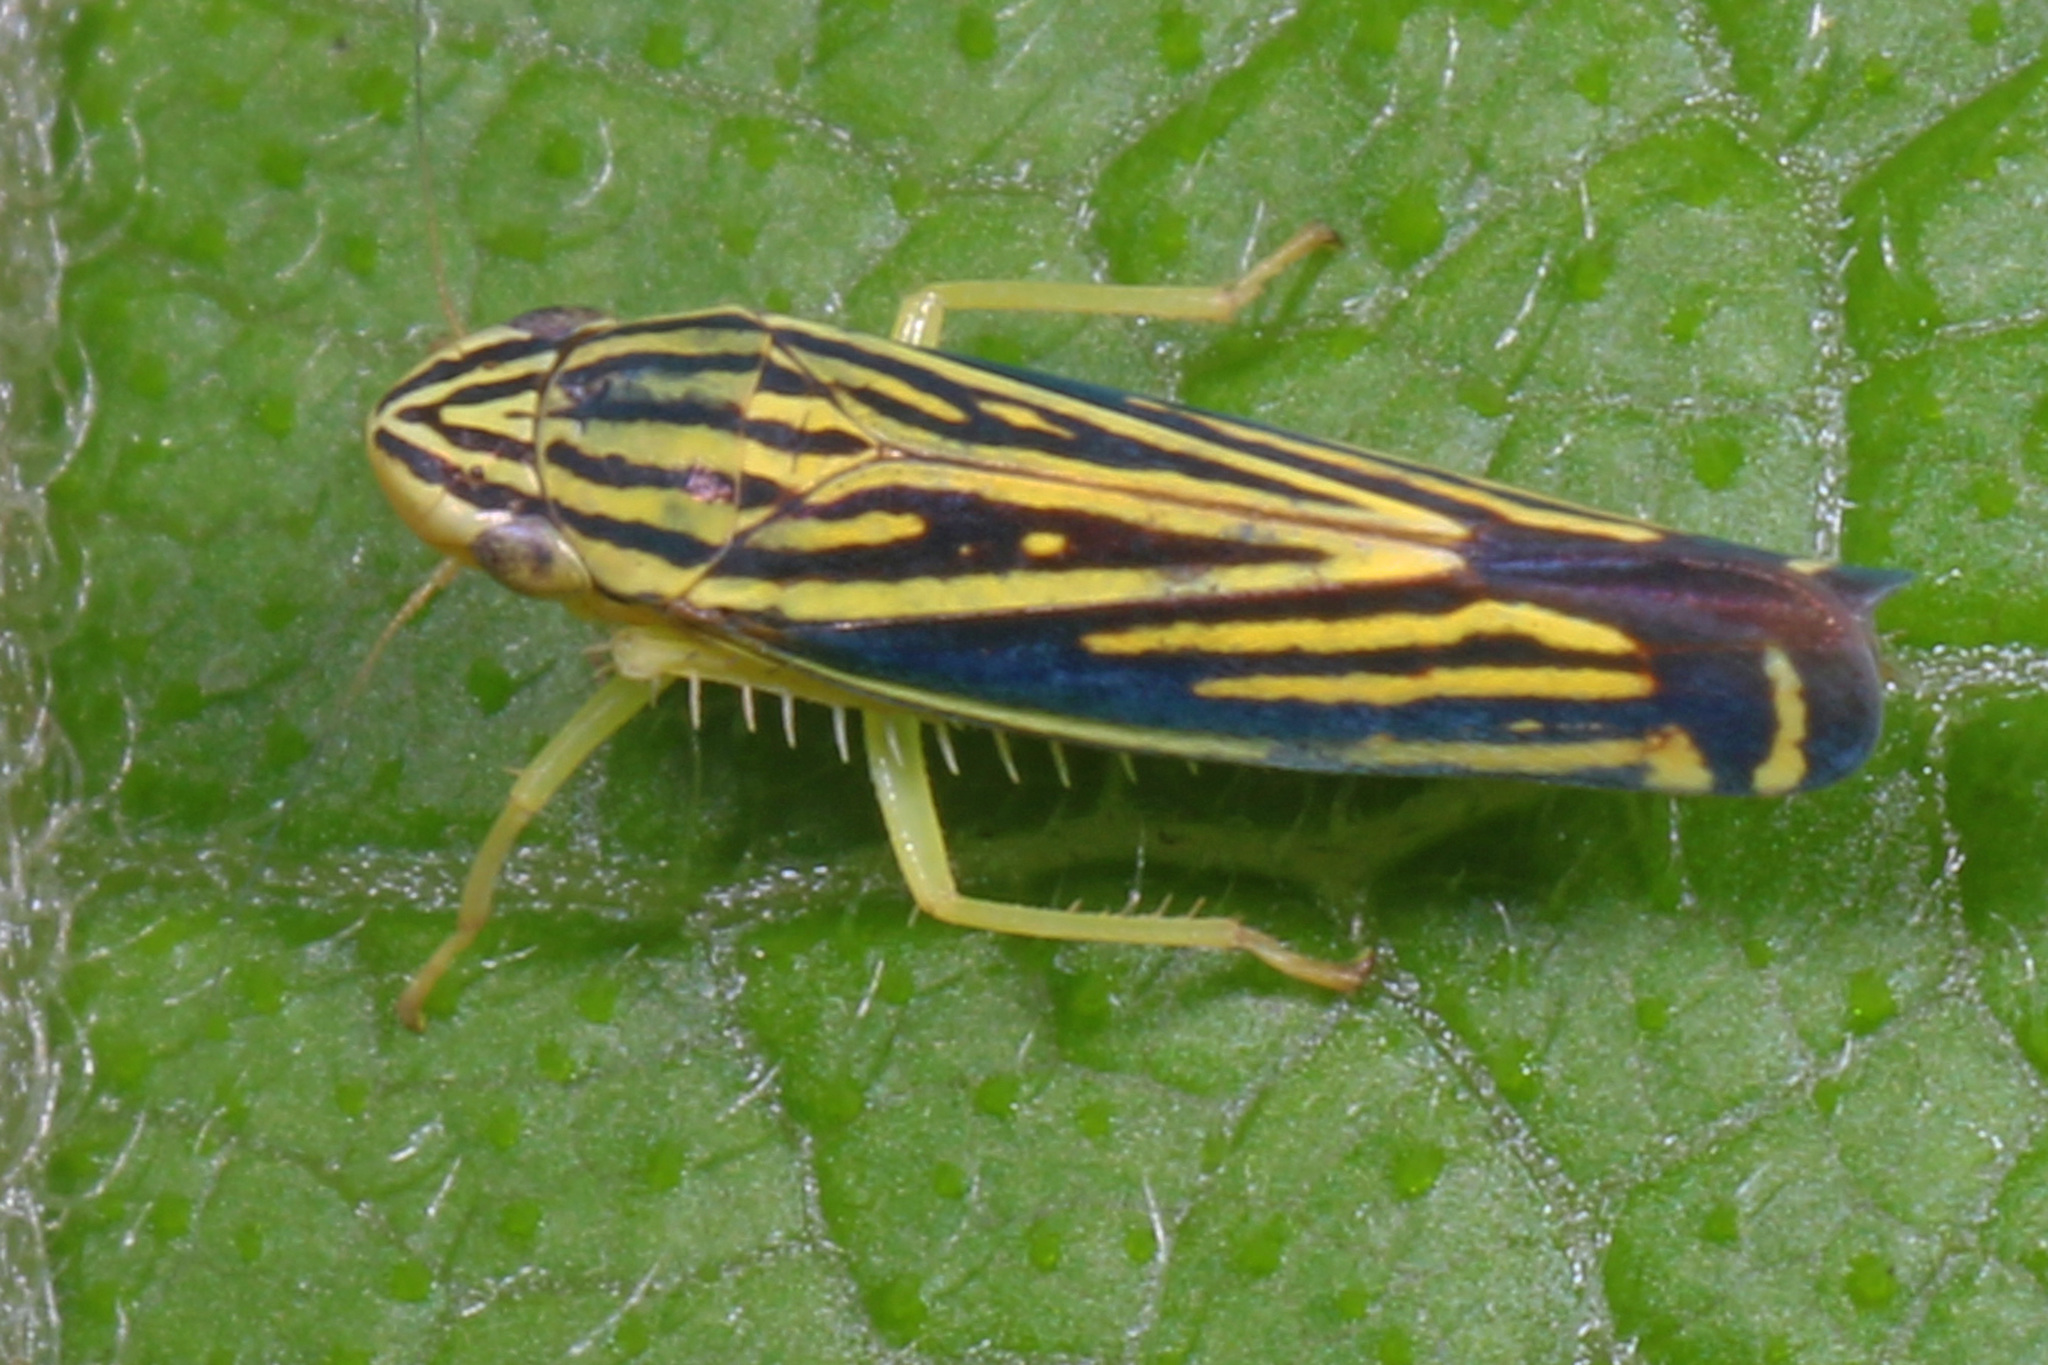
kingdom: Animalia
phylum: Arthropoda
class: Insecta
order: Hemiptera
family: Cicadellidae
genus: Sibovia
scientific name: Sibovia occatoria
